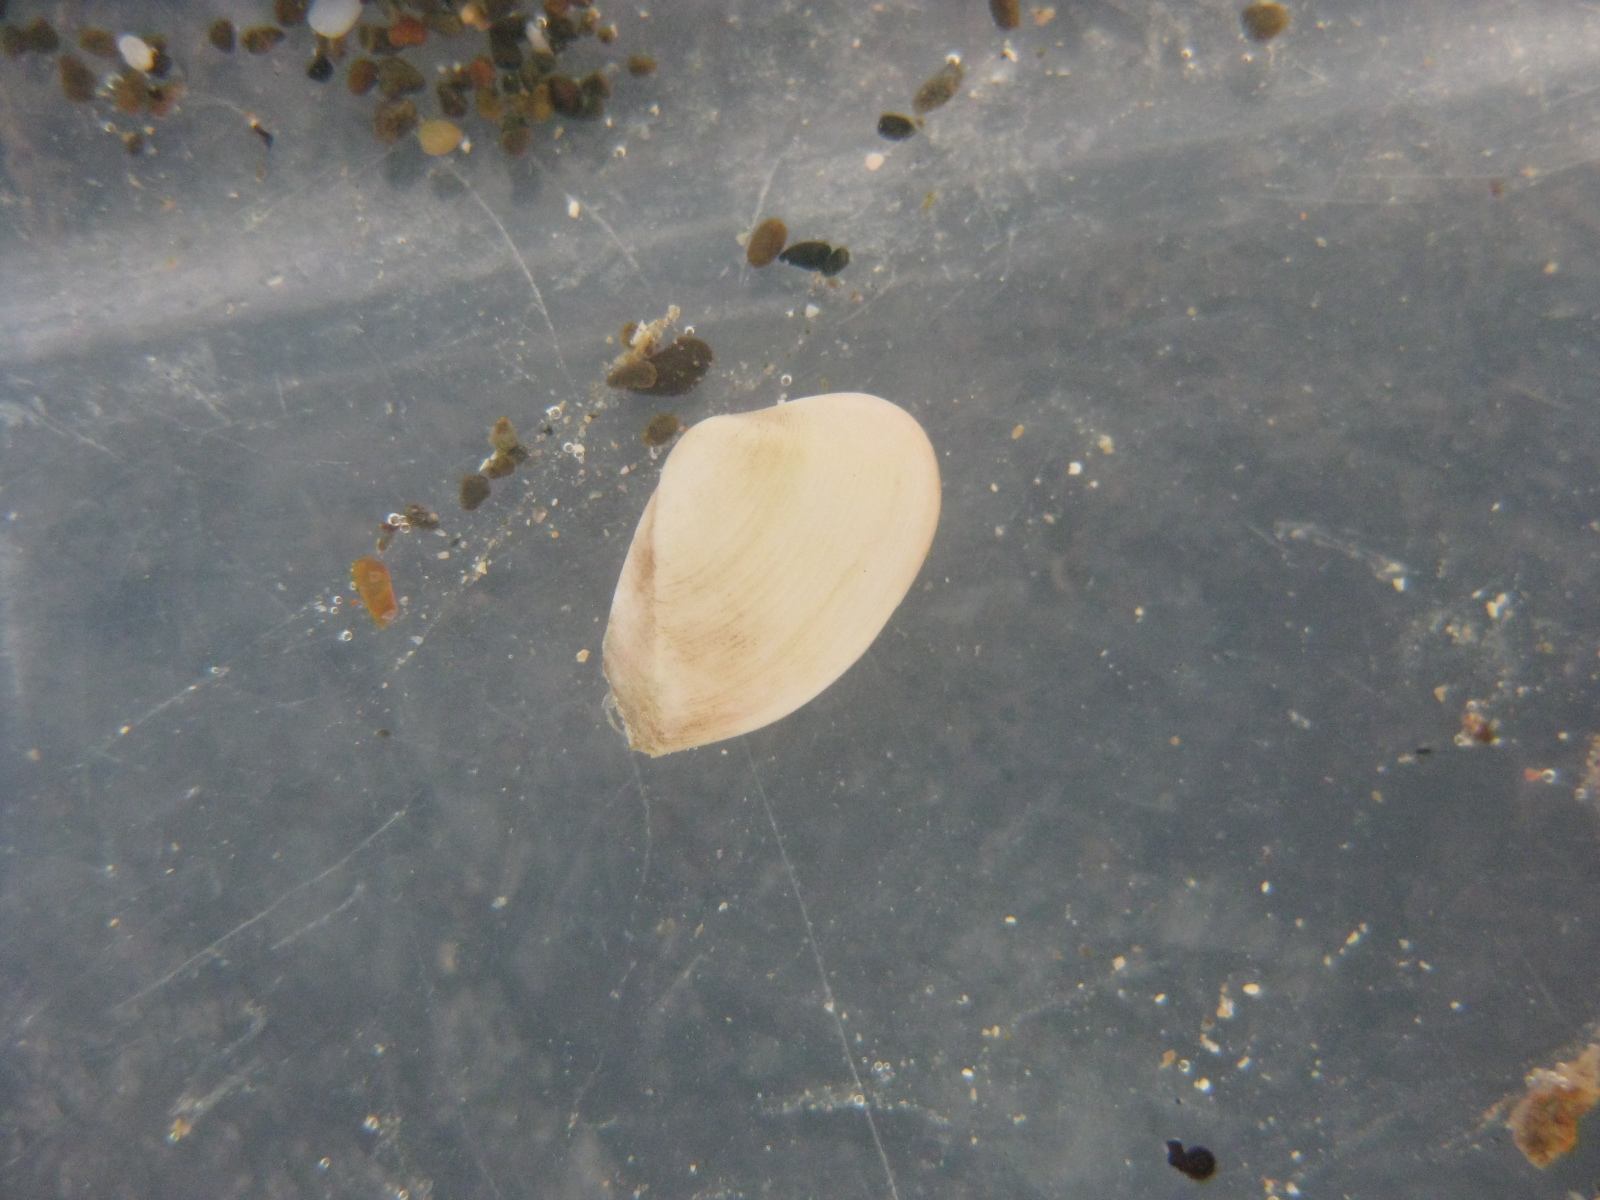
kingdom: Animalia
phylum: Mollusca
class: Bivalvia
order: Myida
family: Corbulidae
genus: Corbula
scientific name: Corbula zelandica
